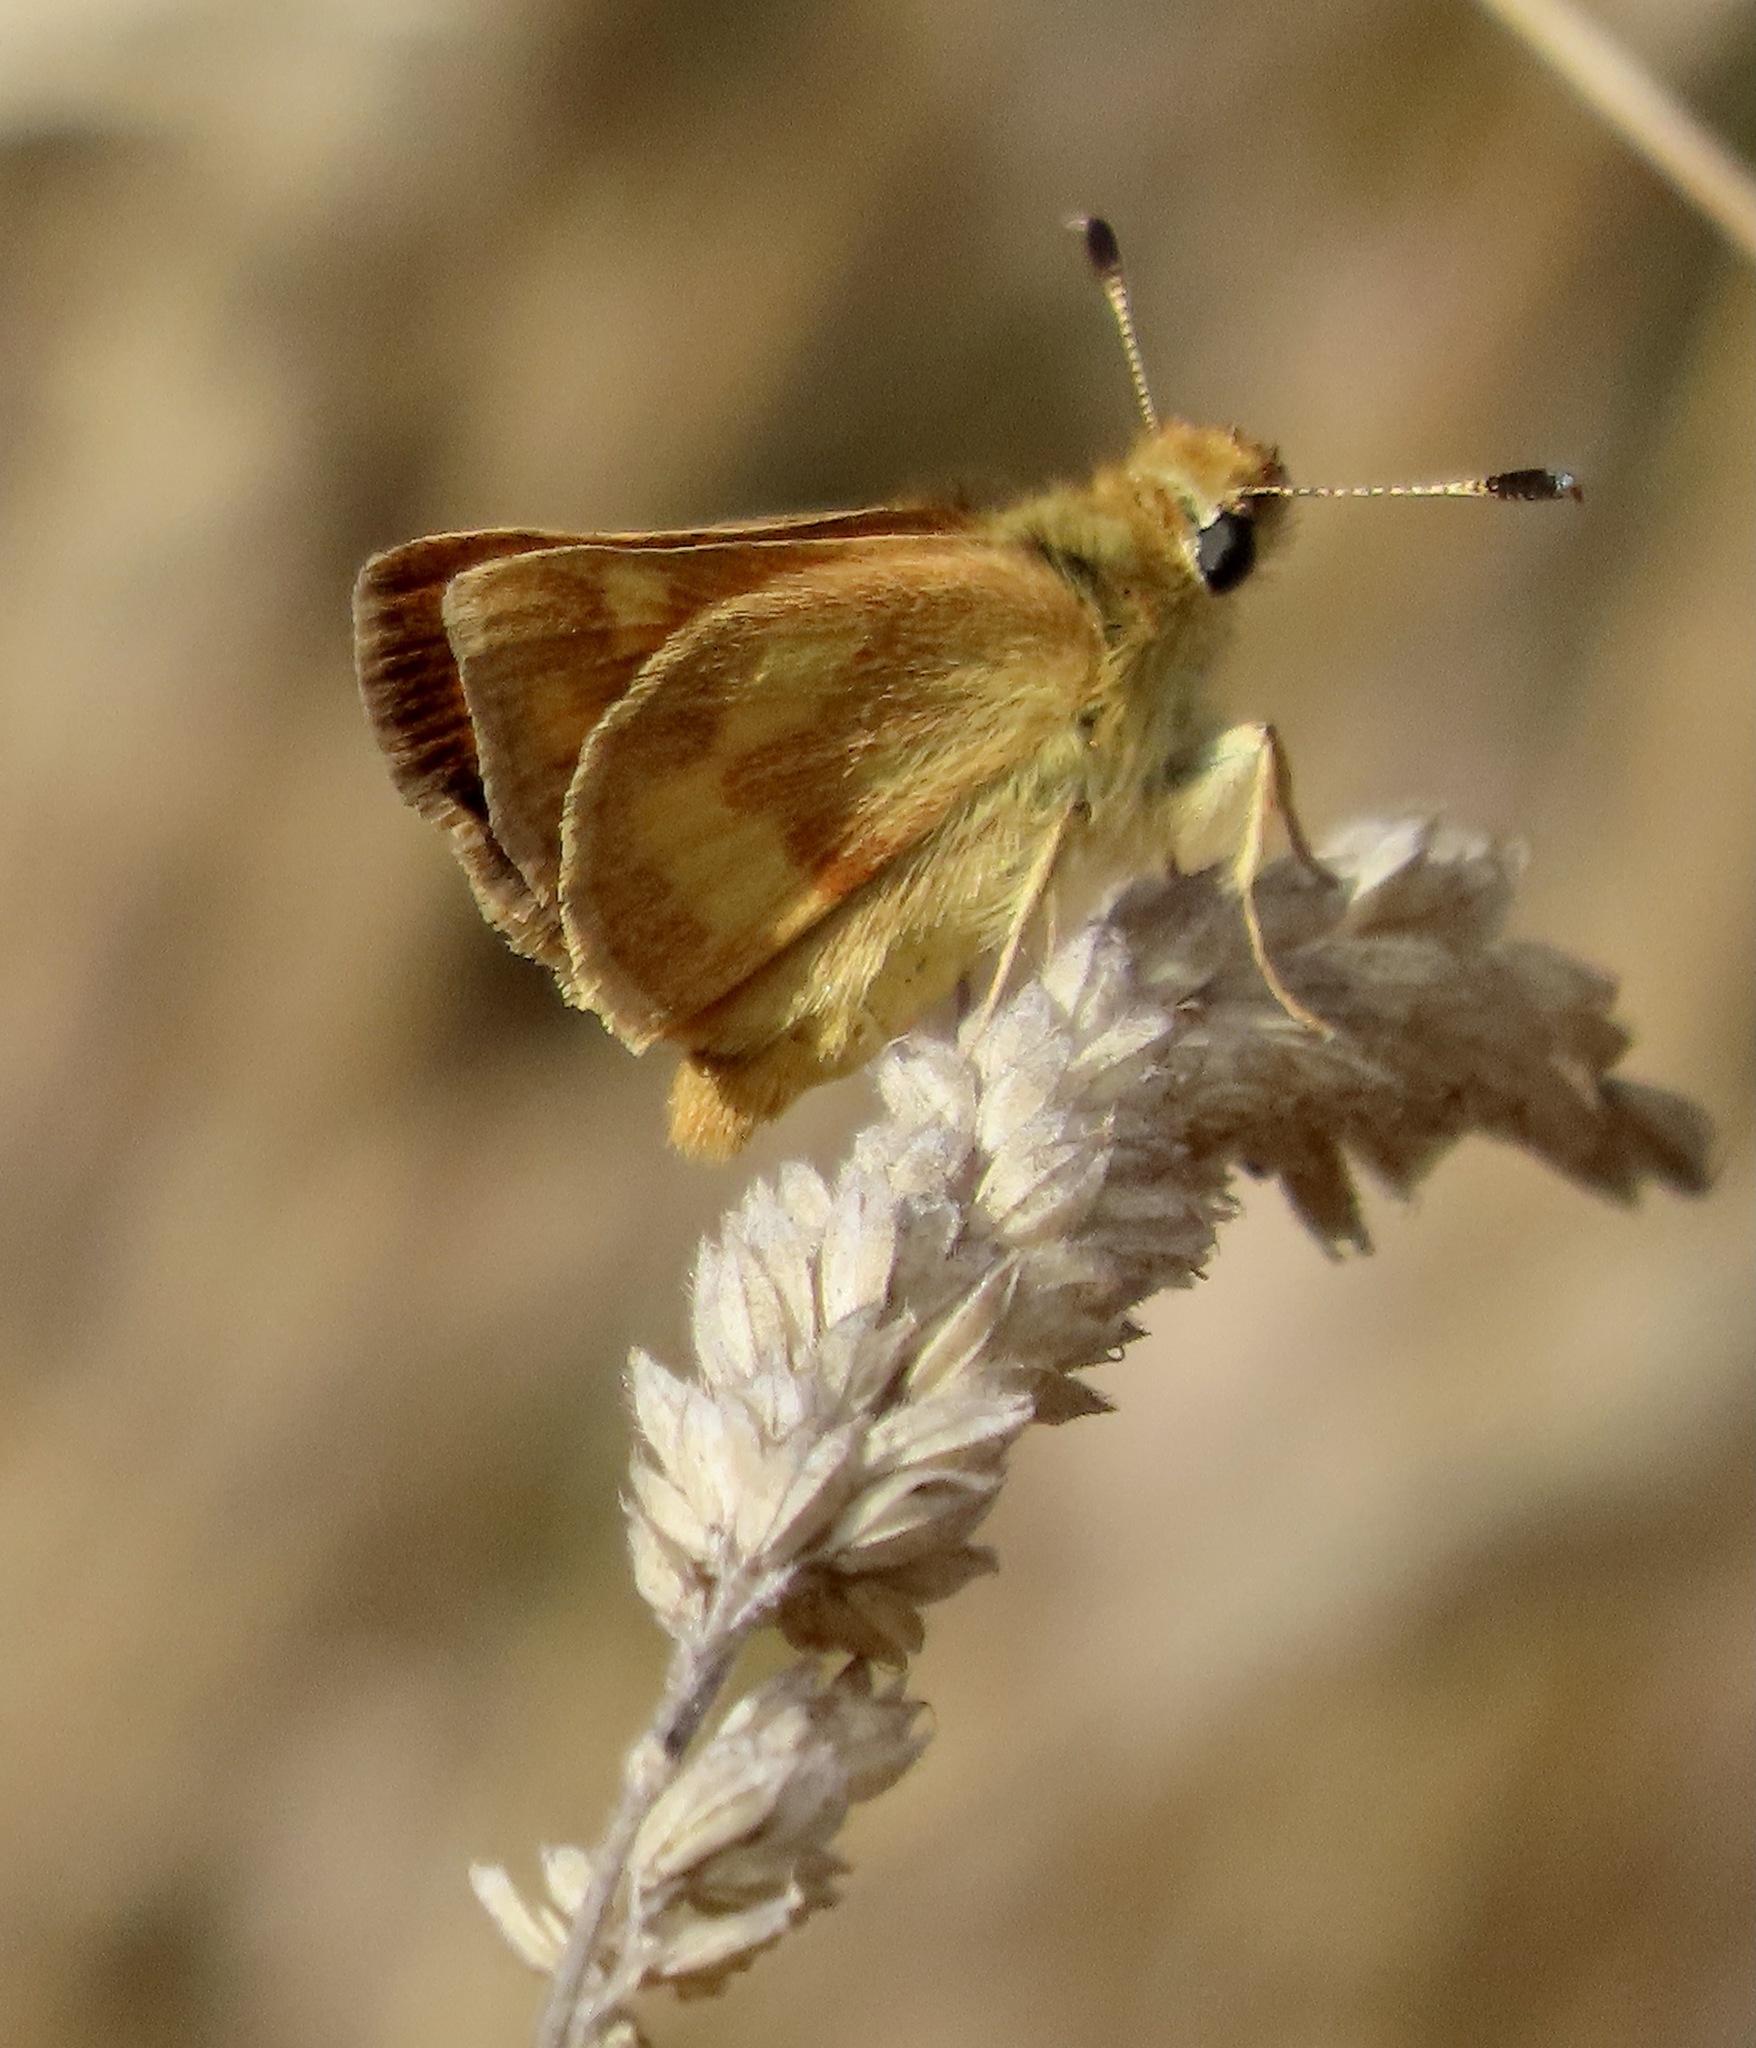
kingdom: Animalia
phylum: Arthropoda
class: Insecta
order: Lepidoptera
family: Hesperiidae
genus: Ochlodes
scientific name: Ochlodes sylvanoides
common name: Woodland skipper
